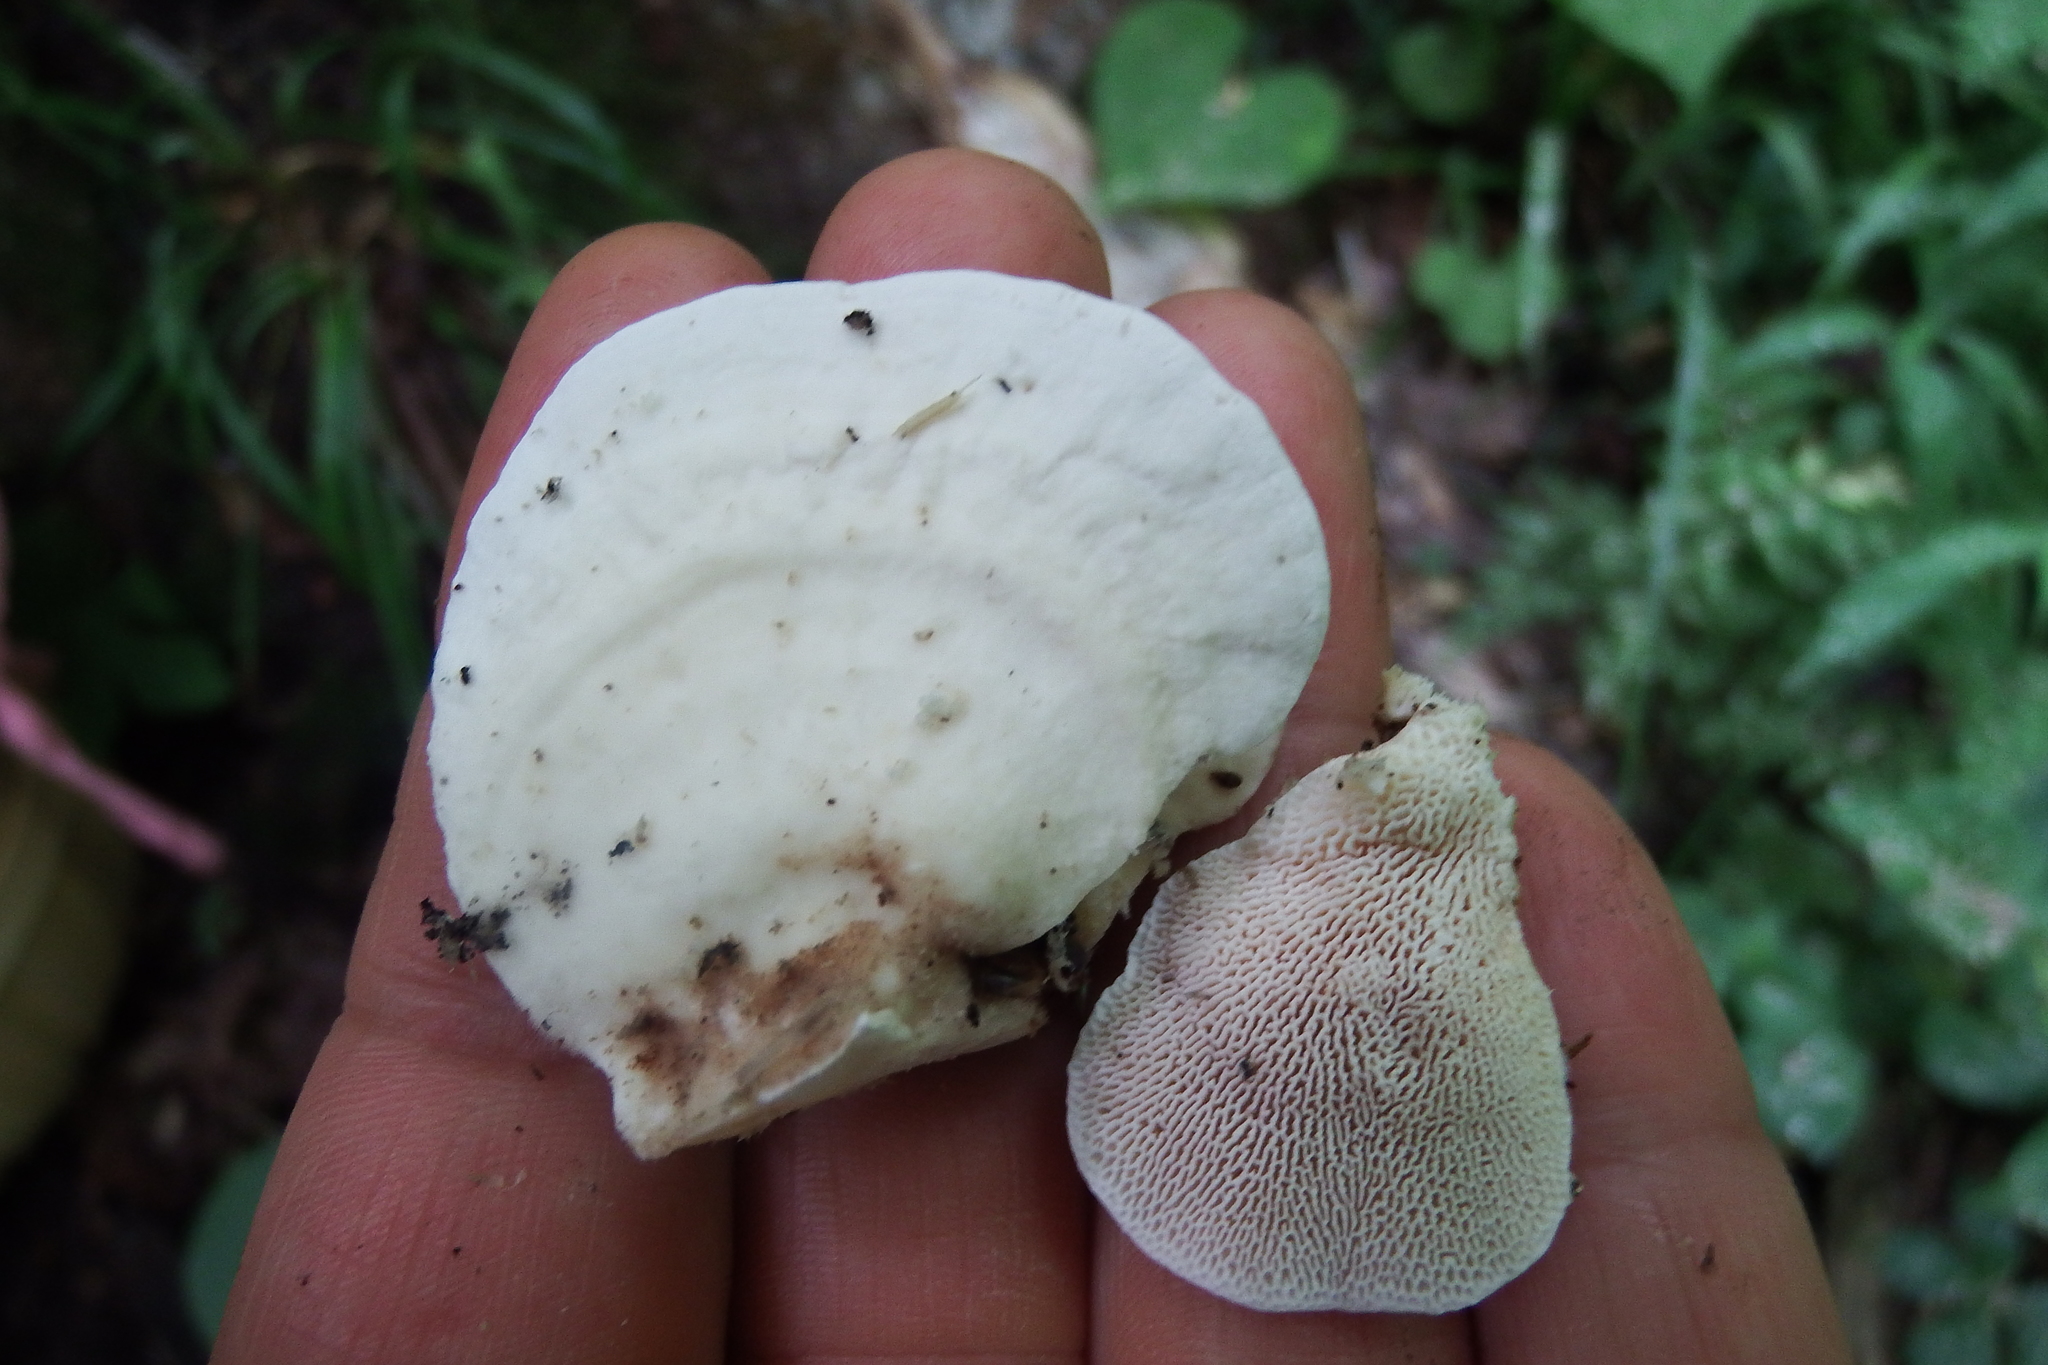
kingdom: Fungi
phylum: Basidiomycota
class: Agaricomycetes
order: Polyporales
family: Polyporaceae
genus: Trametes
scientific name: Trametes gibbosa
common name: Lumpy bracket
